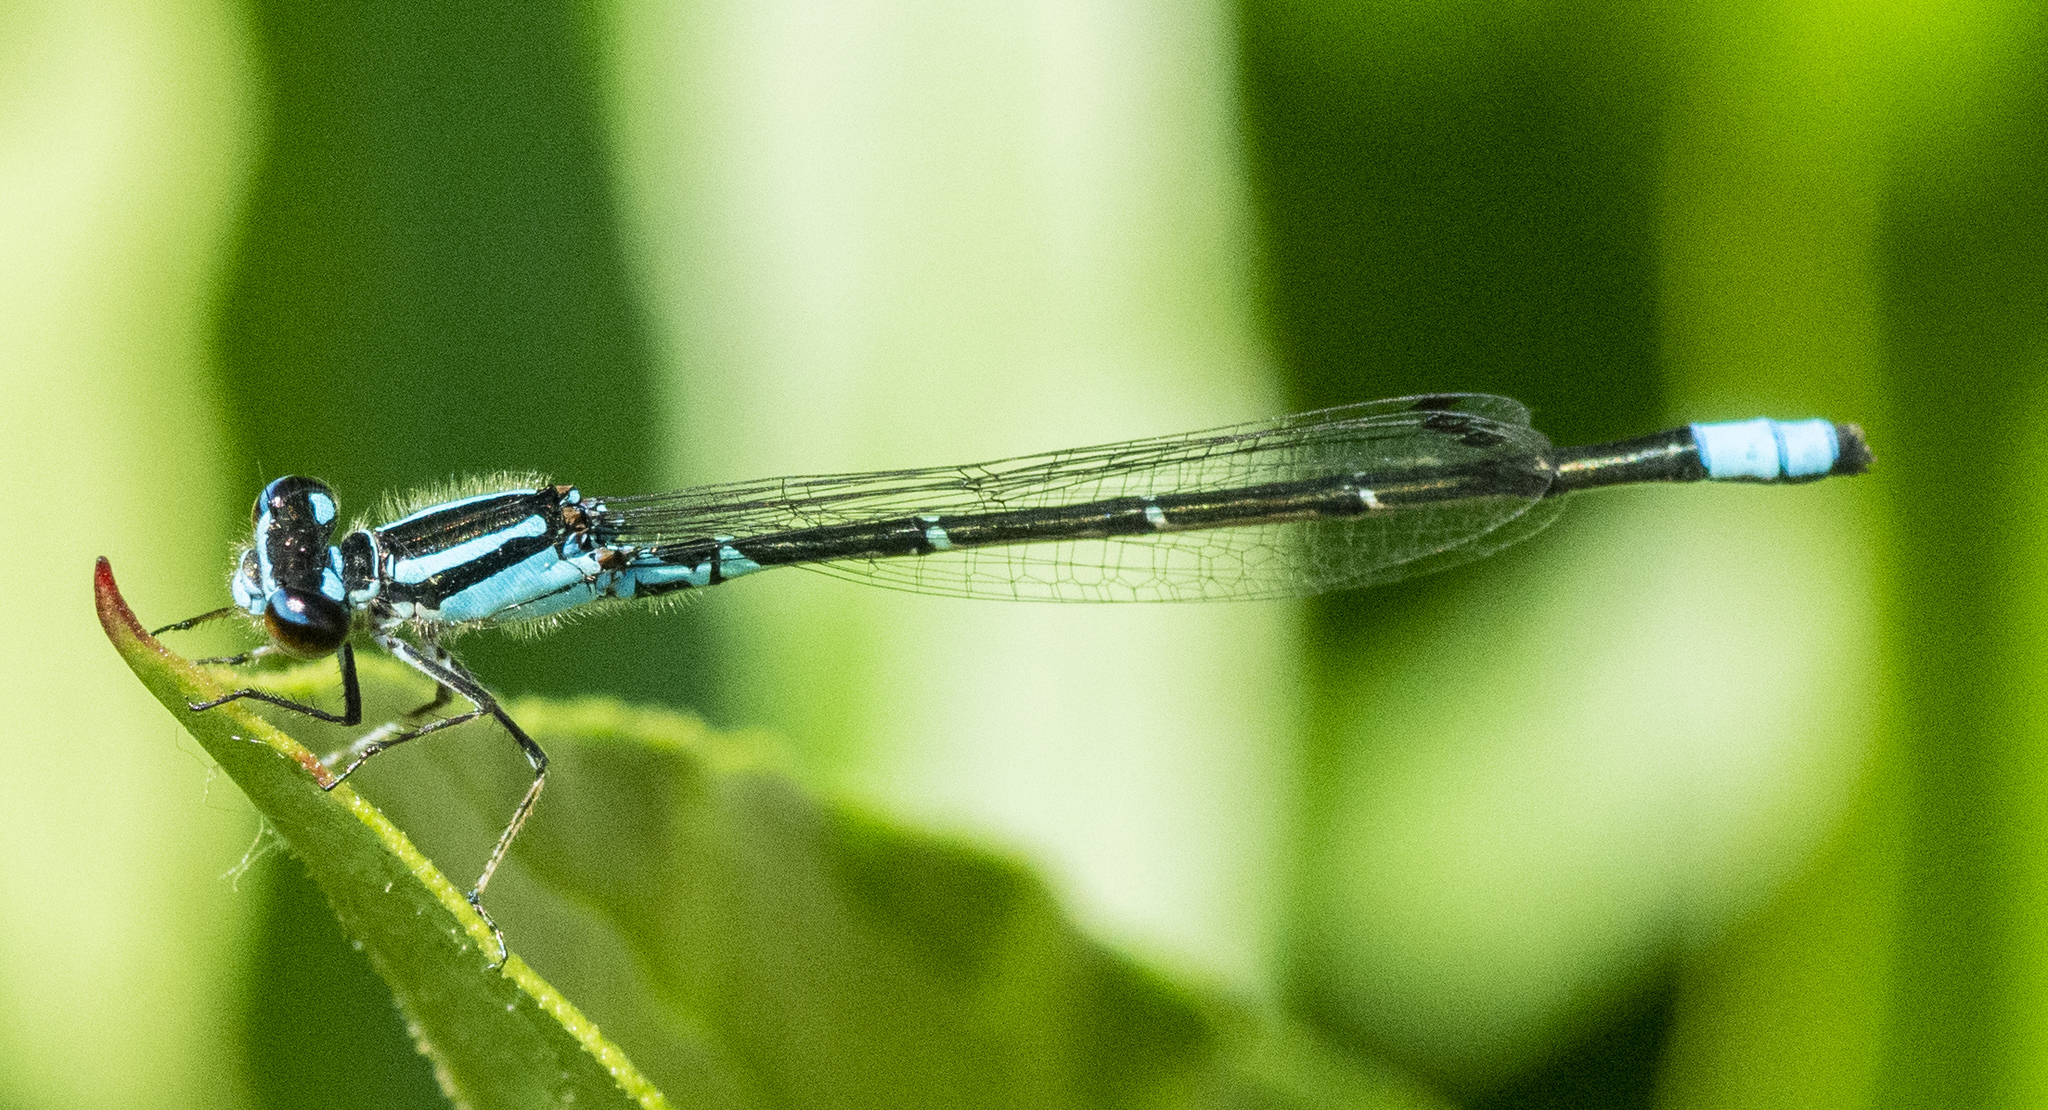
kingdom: Animalia
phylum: Arthropoda
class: Insecta
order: Odonata
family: Coenagrionidae
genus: Enallagma
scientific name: Enallagma geminatum
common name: Skimming bluet
